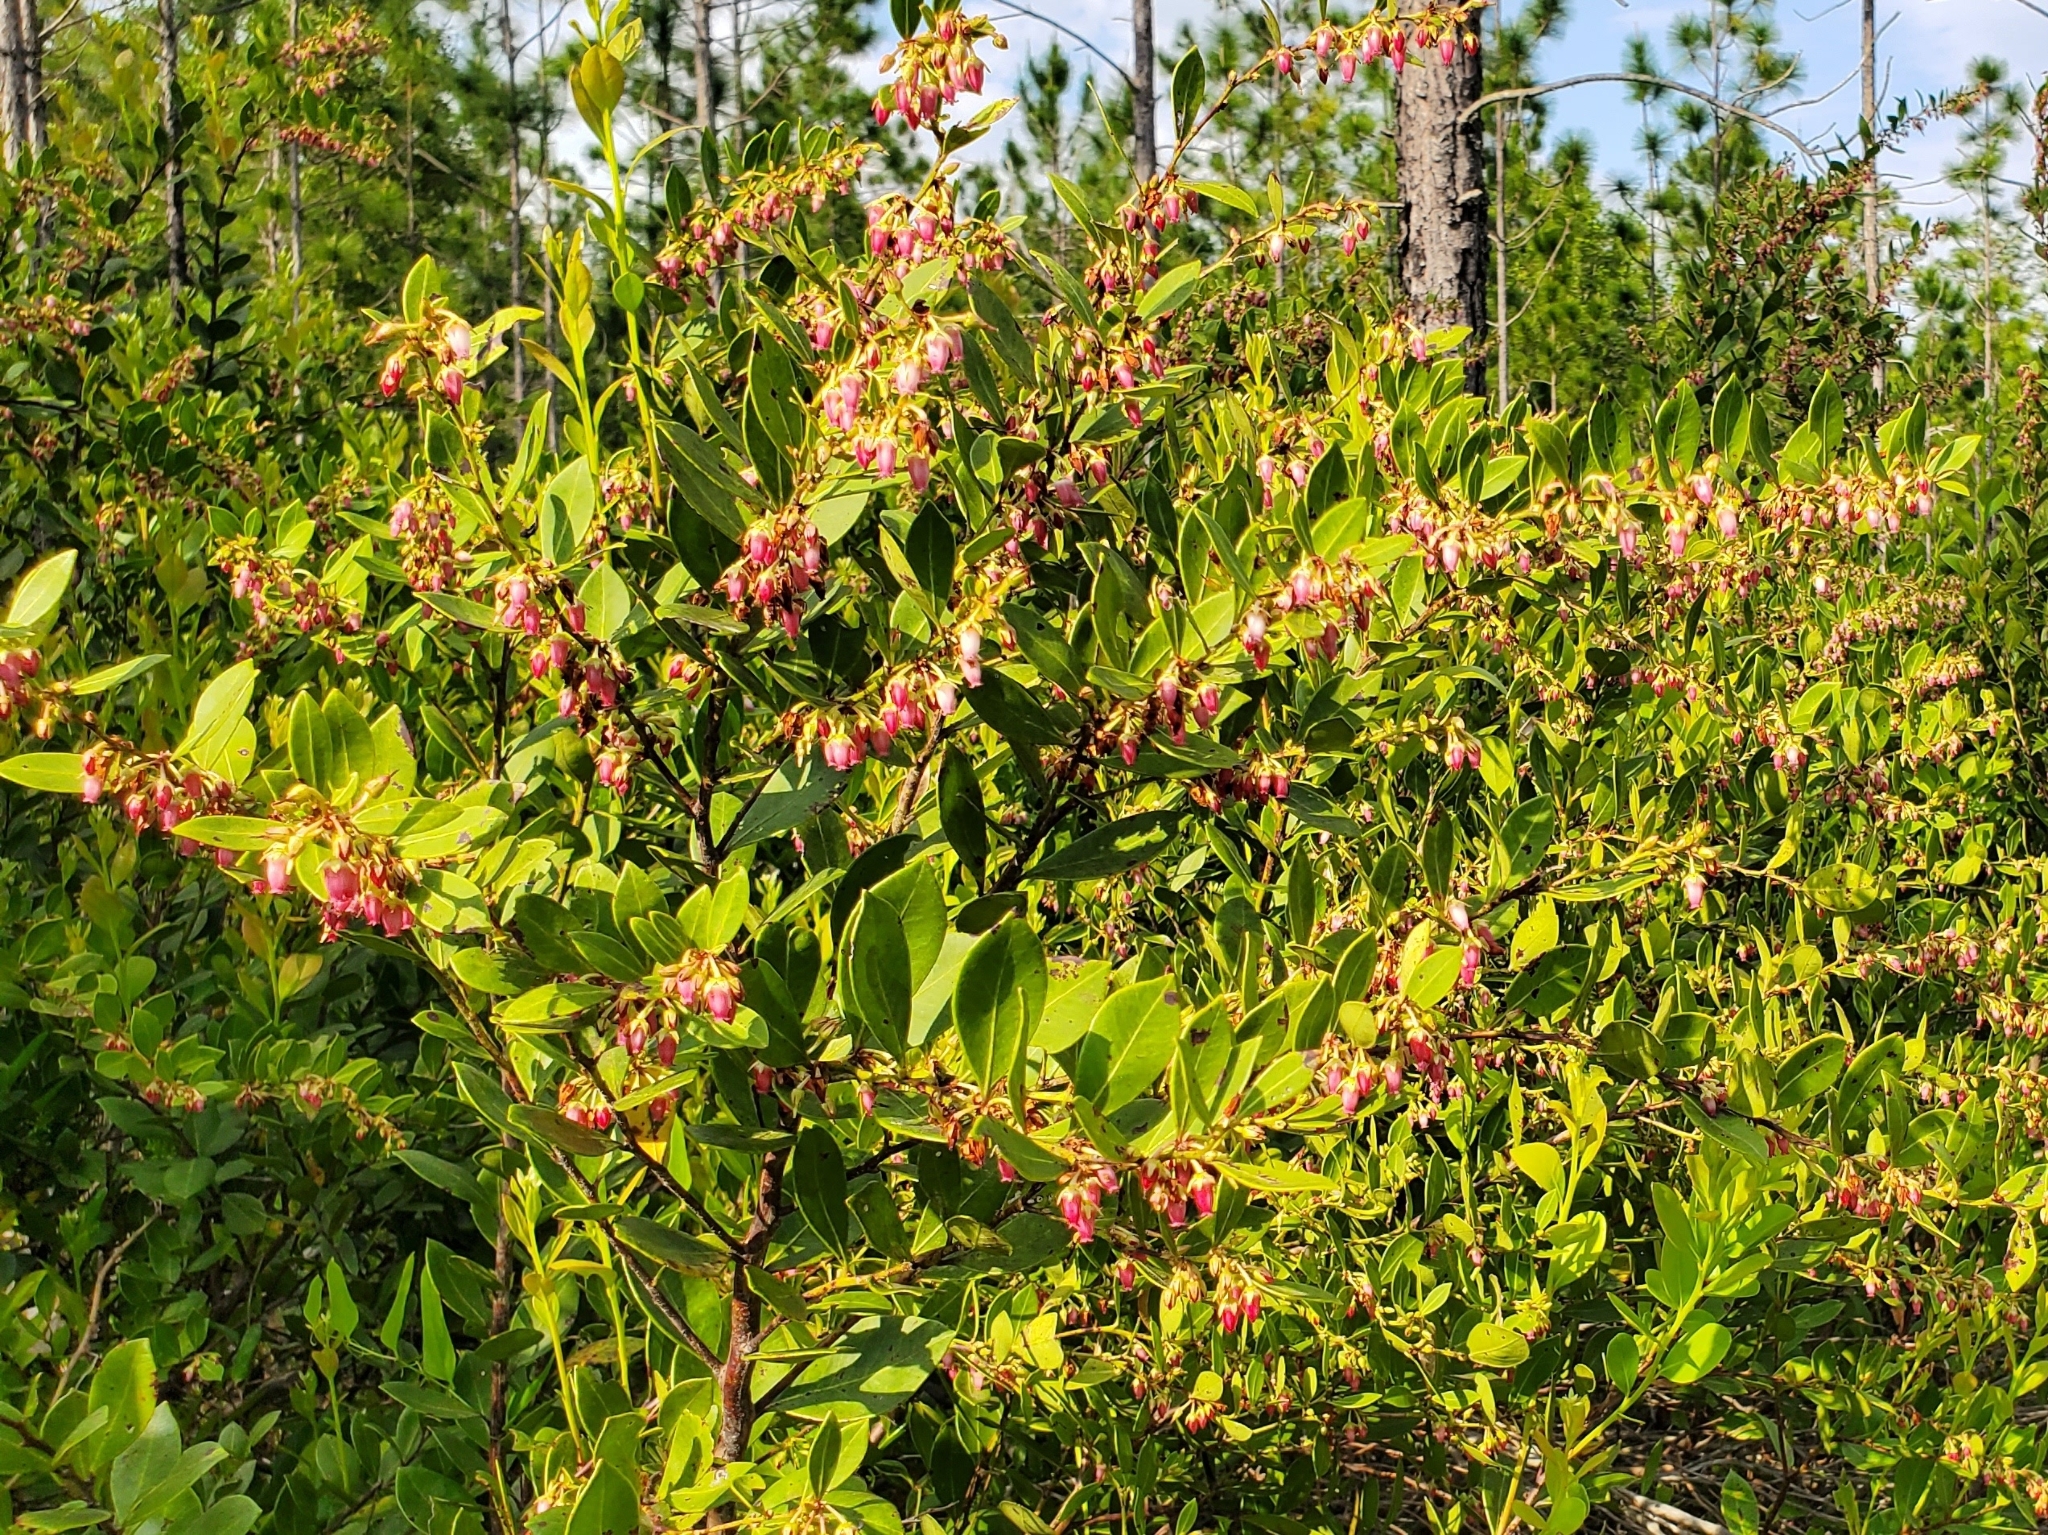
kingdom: Plantae
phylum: Tracheophyta
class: Magnoliopsida
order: Ericales
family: Ericaceae
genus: Lyonia
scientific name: Lyonia lucida
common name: Fetterbush
